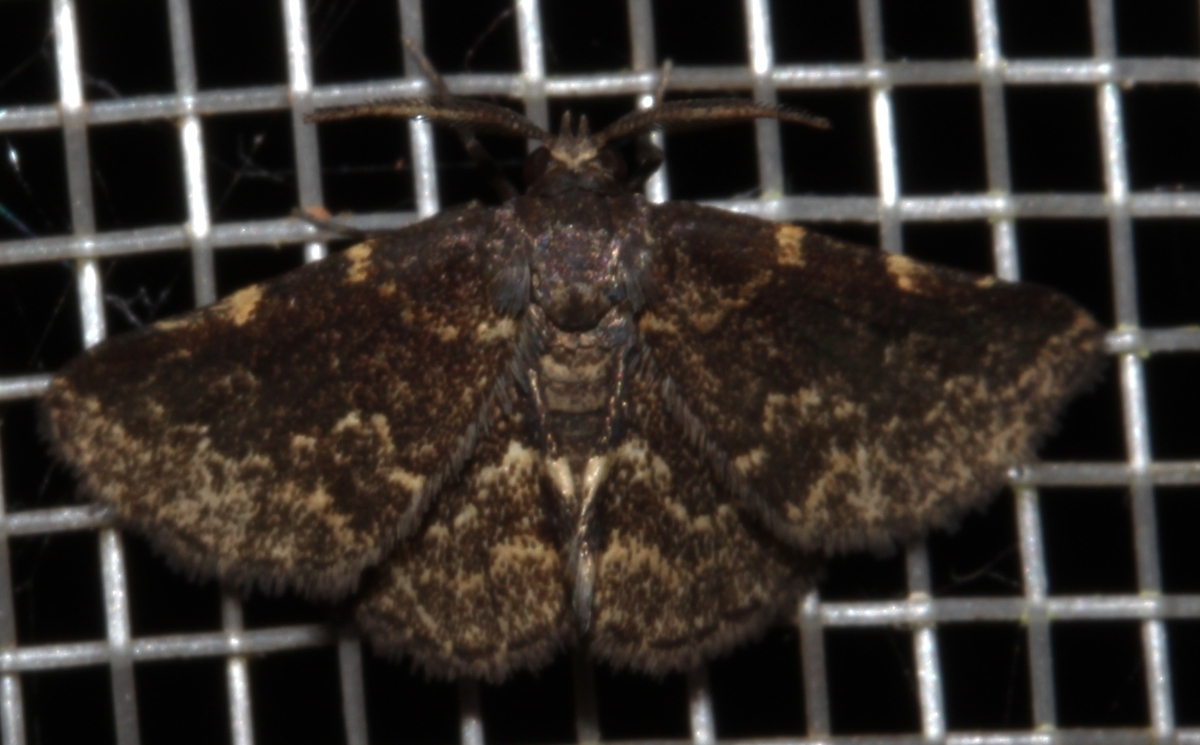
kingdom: Animalia
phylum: Arthropoda
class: Insecta
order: Lepidoptera
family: Erebidae
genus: Prosoparia
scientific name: Prosoparia marginata
